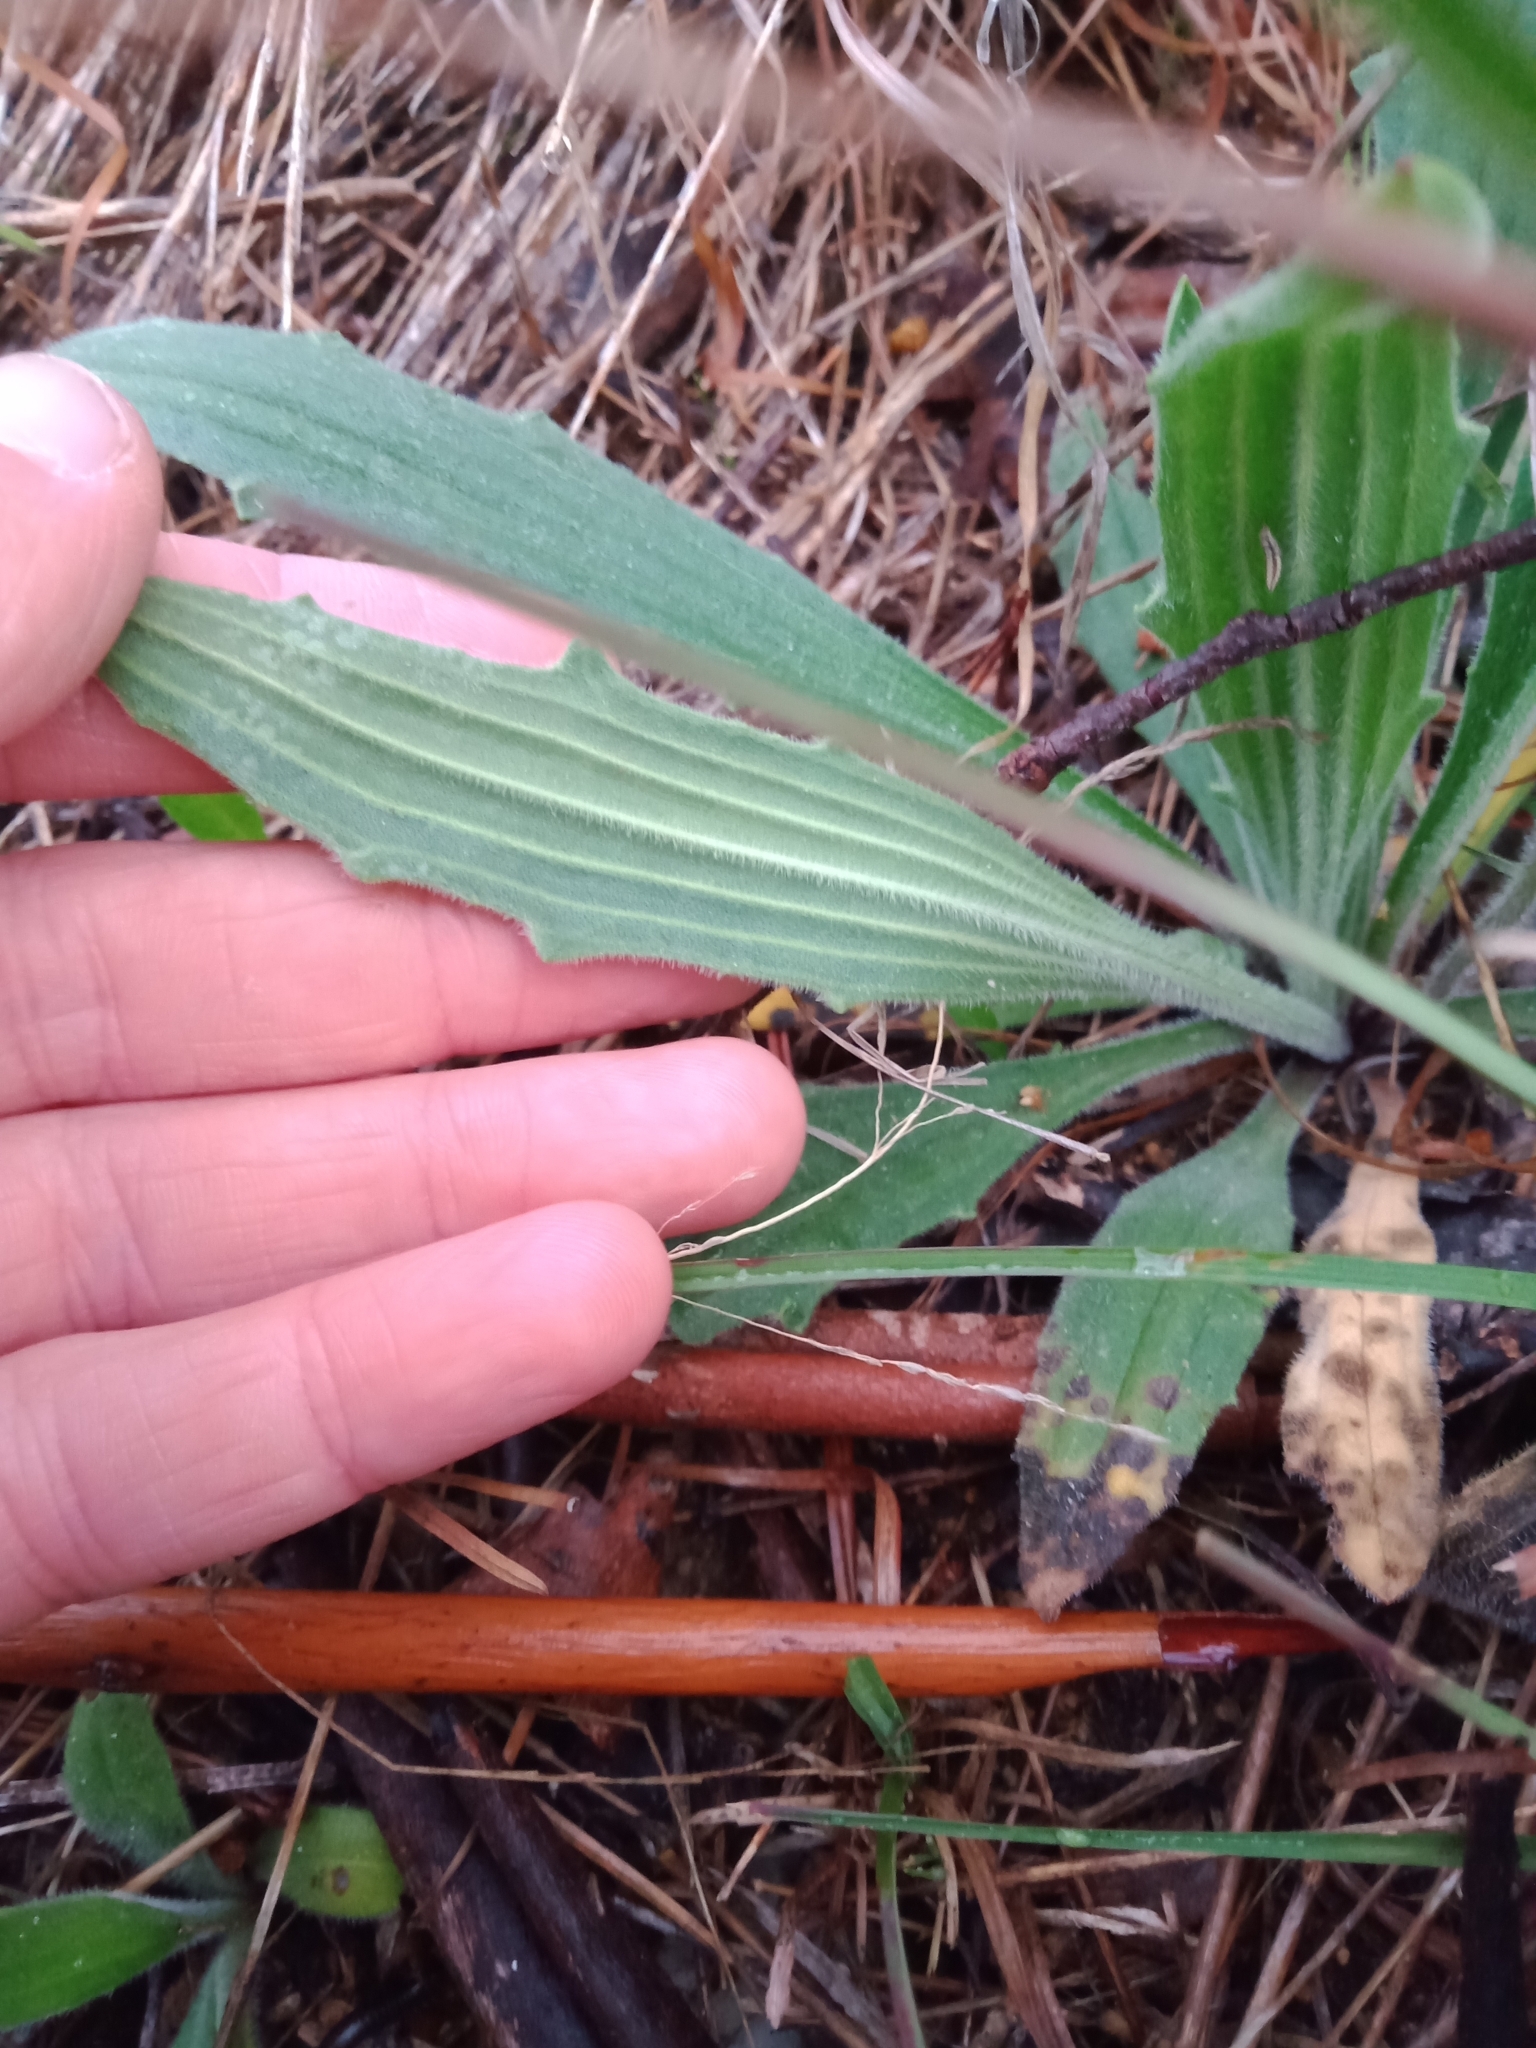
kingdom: Plantae
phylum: Tracheophyta
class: Magnoliopsida
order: Lamiales
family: Plantaginaceae
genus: Plantago
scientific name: Plantago varia
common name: Variable plantain
